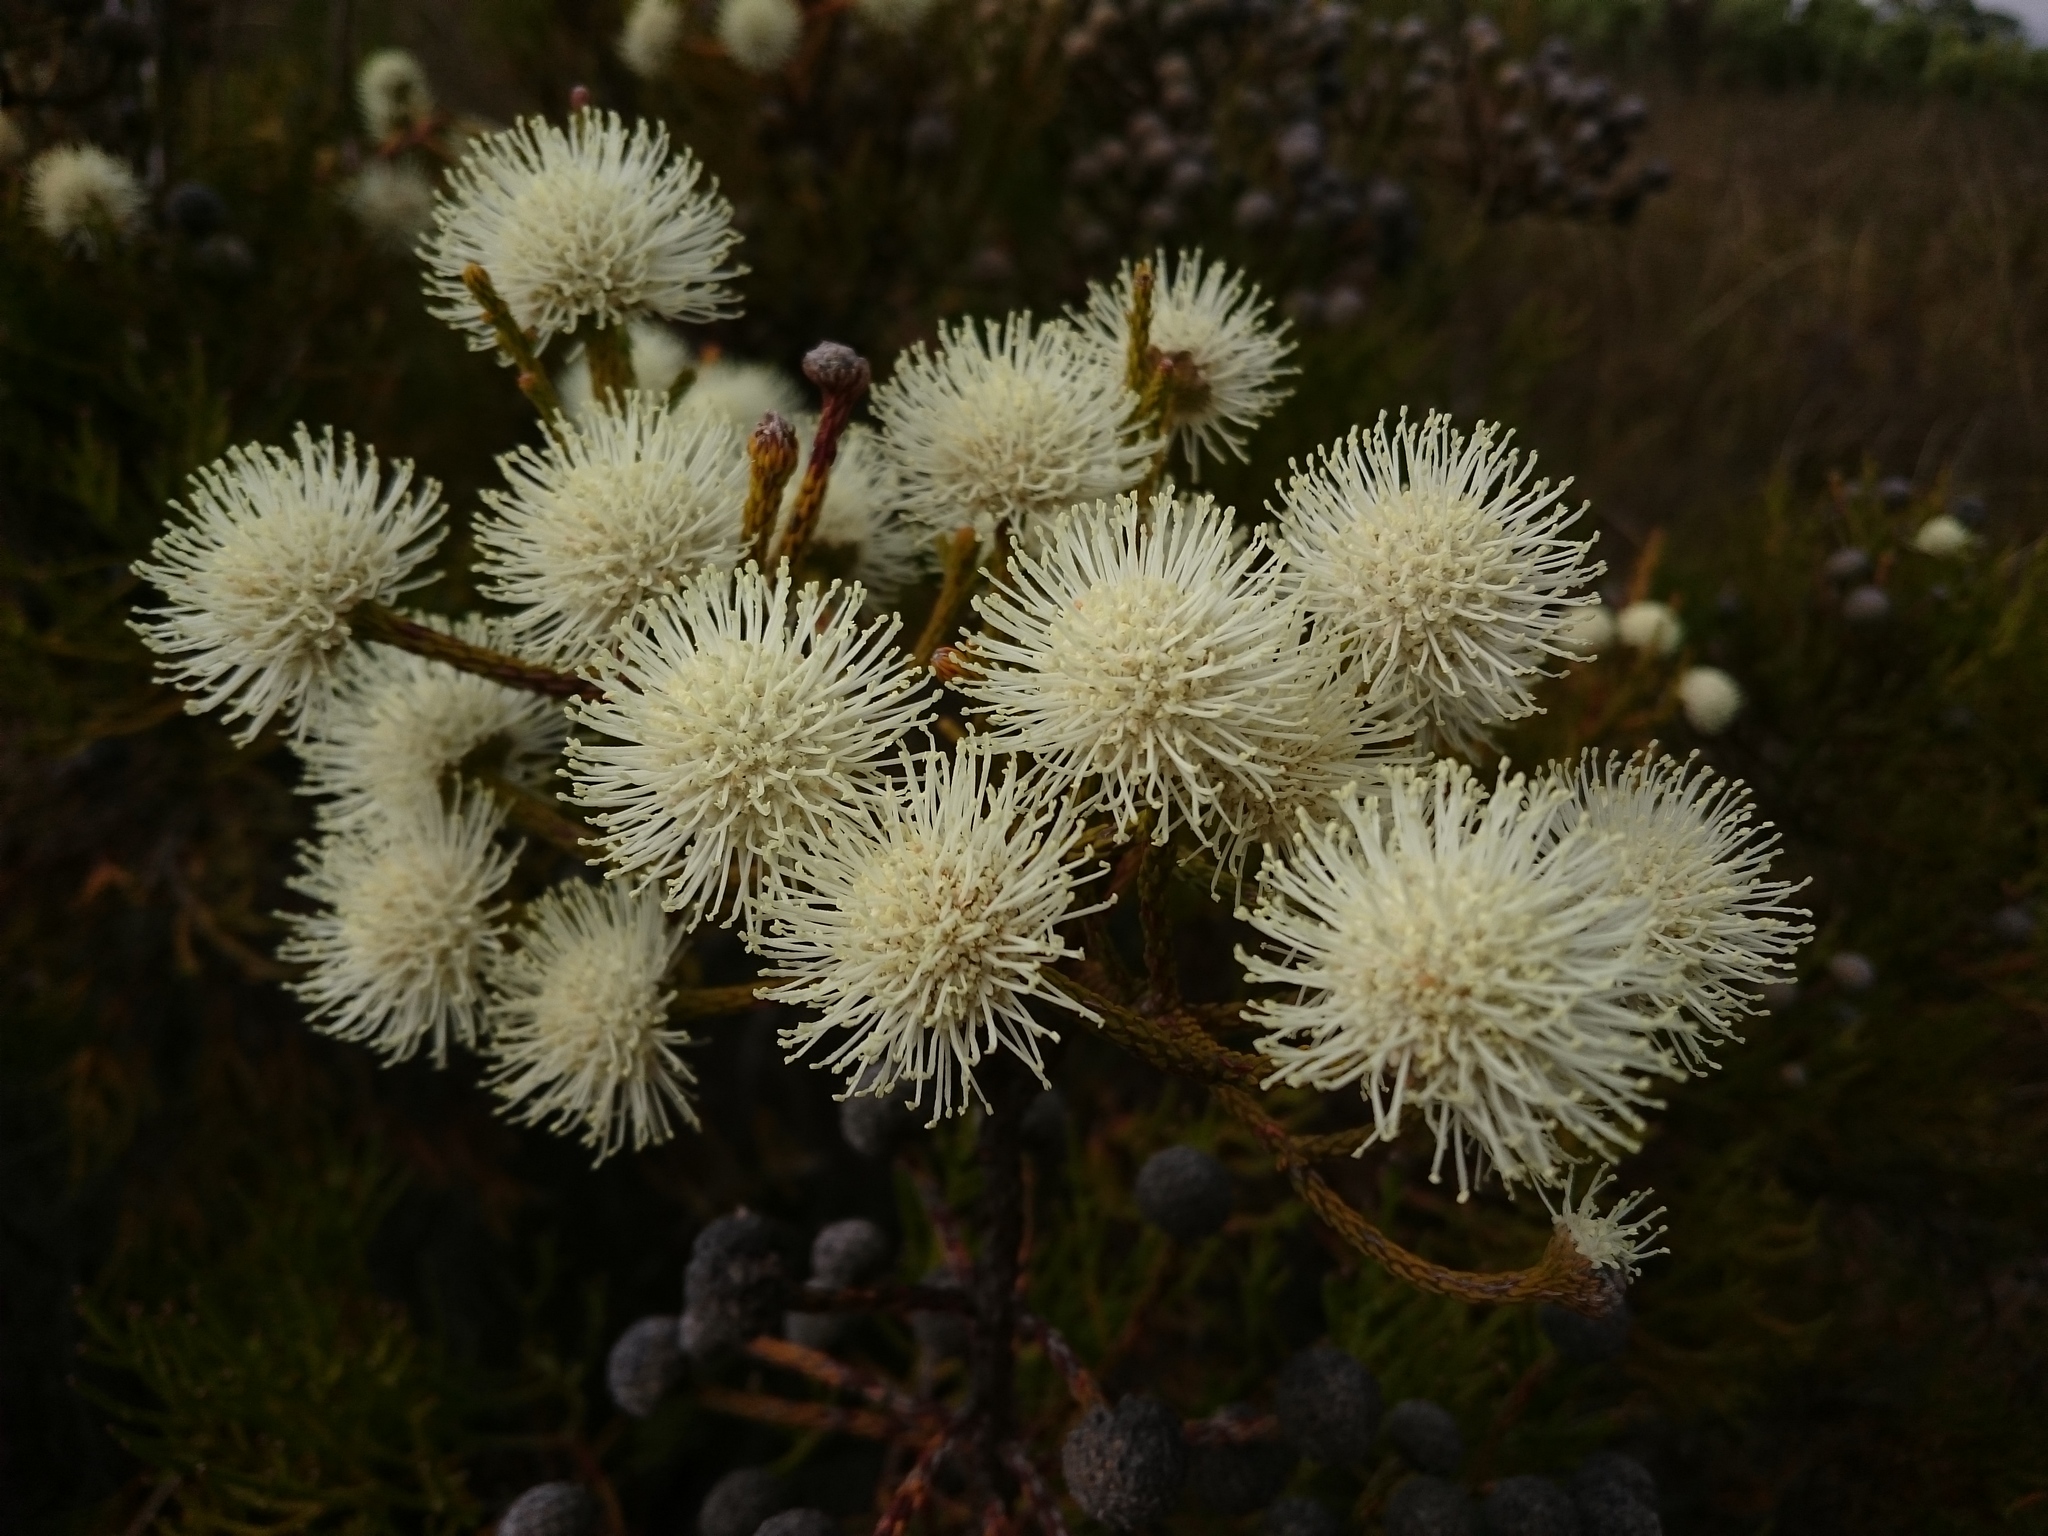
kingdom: Plantae
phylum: Tracheophyta
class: Magnoliopsida
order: Bruniales
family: Bruniaceae
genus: Brunia
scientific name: Brunia noduliflora
